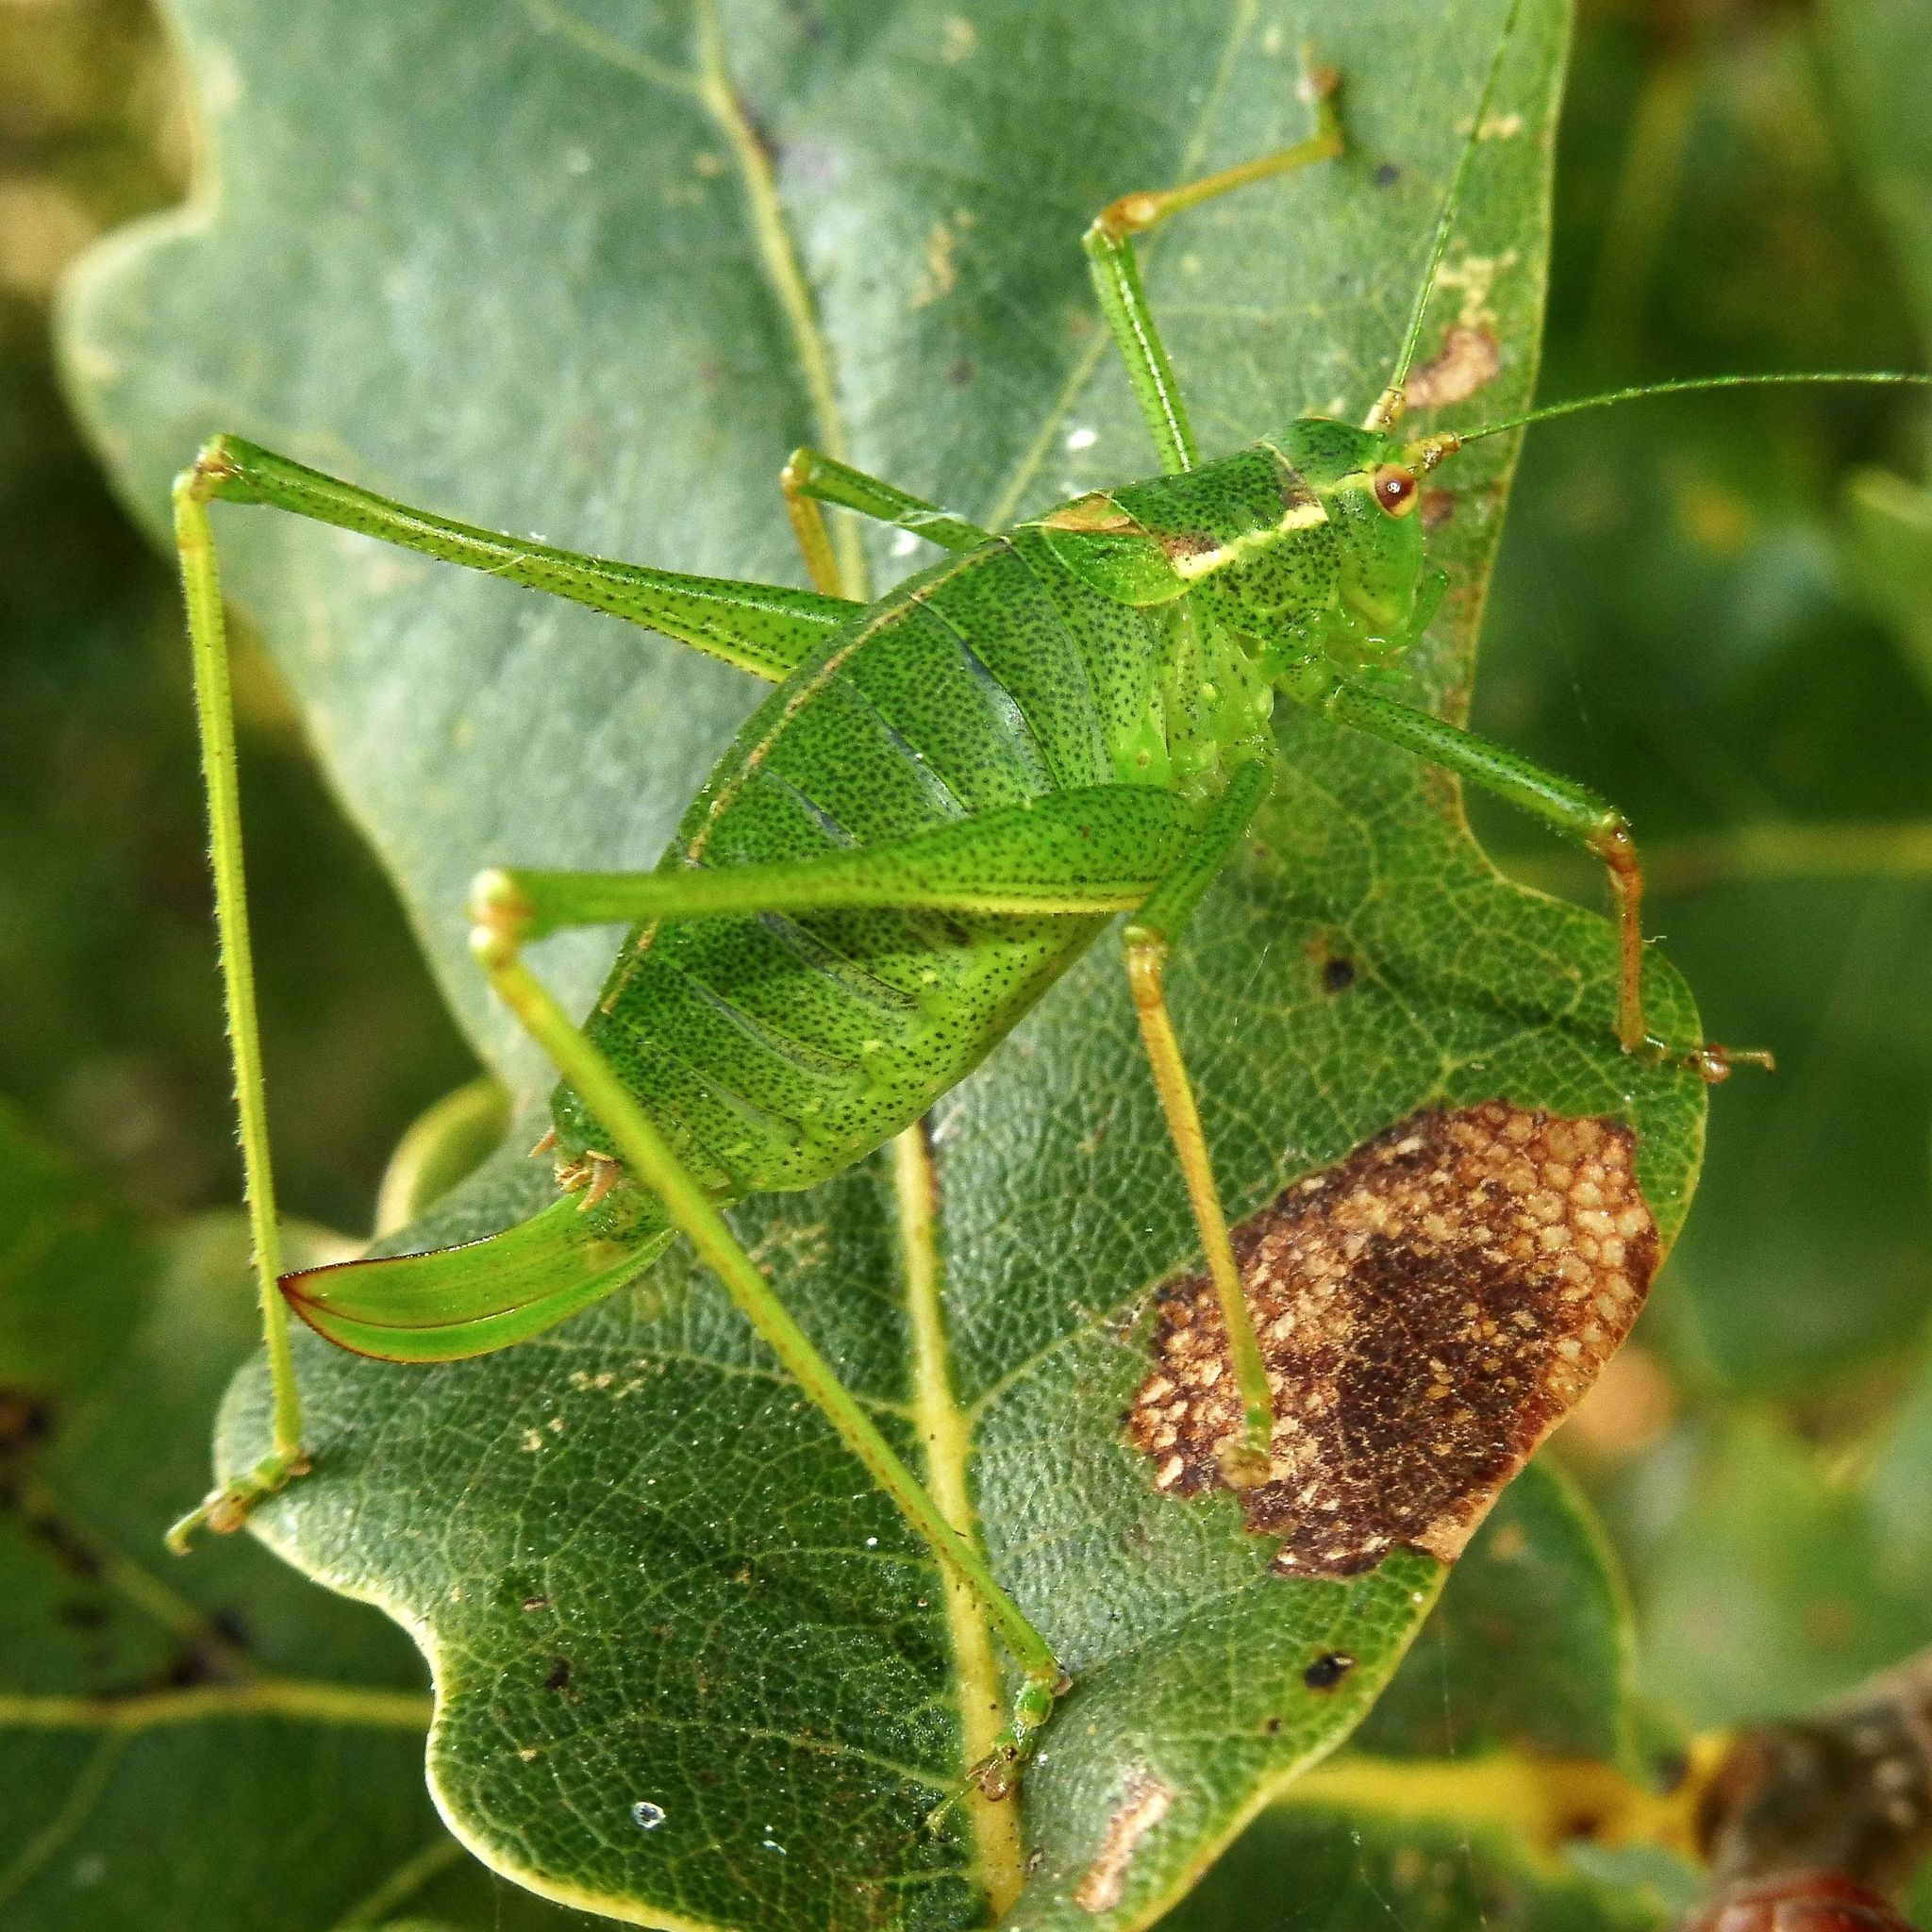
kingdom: Animalia
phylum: Arthropoda
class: Insecta
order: Orthoptera
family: Tettigoniidae
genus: Leptophyes
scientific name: Leptophyes punctatissima
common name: Speckled bush-cricket
